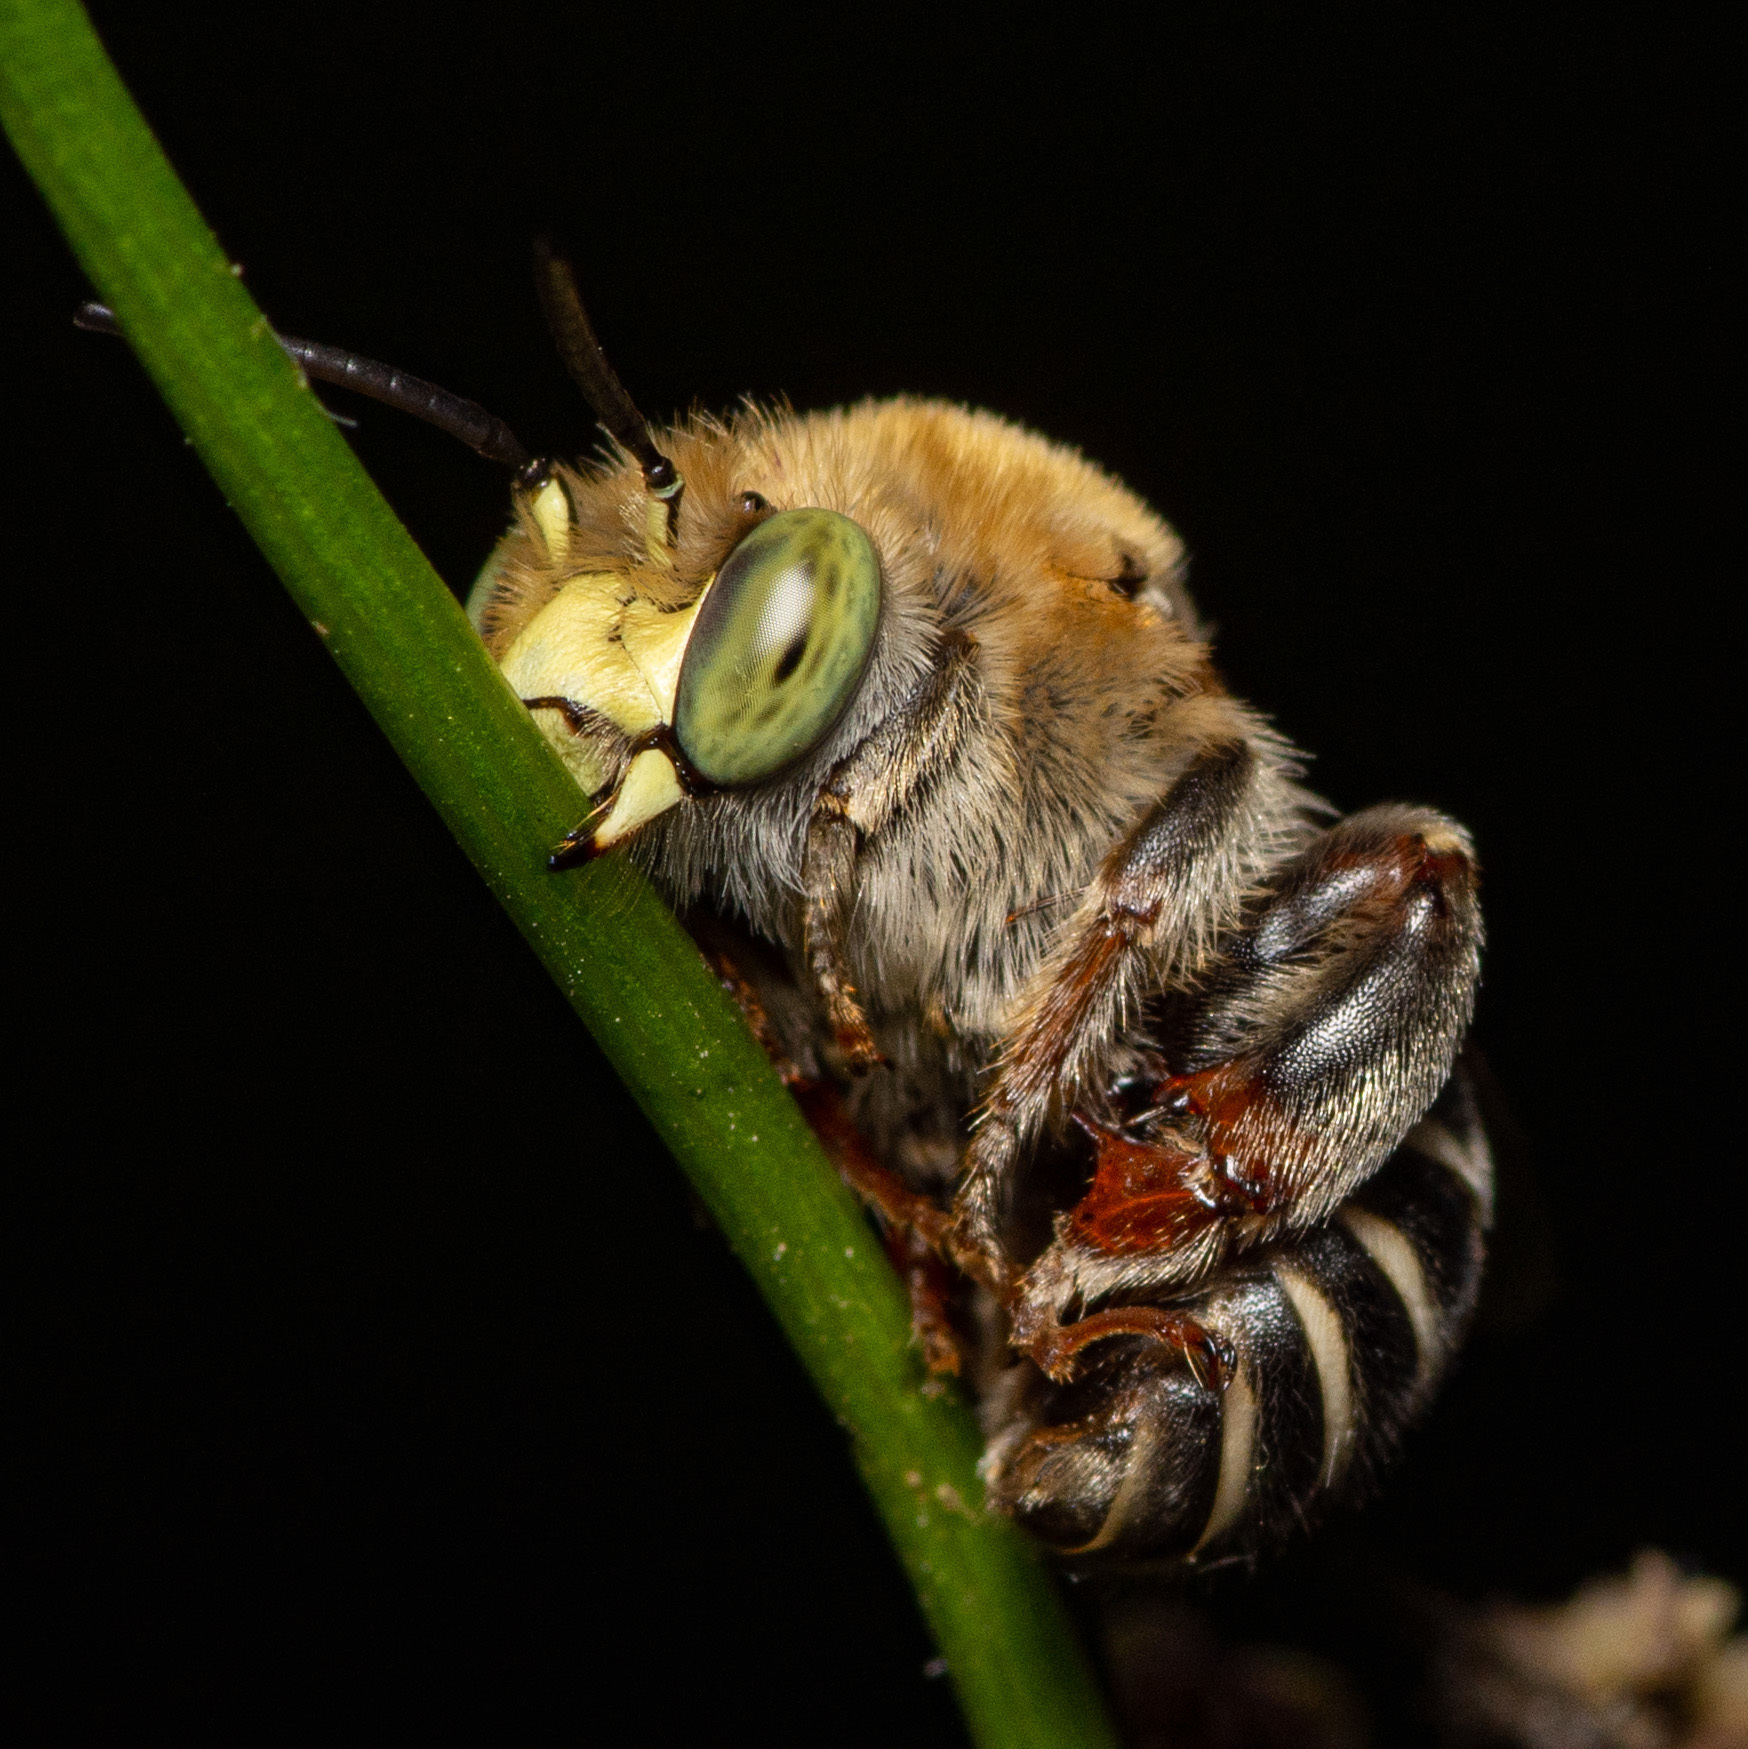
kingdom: Animalia
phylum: Arthropoda
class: Insecta
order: Hymenoptera
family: Apidae
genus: Anthophora
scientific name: Anthophora californica
